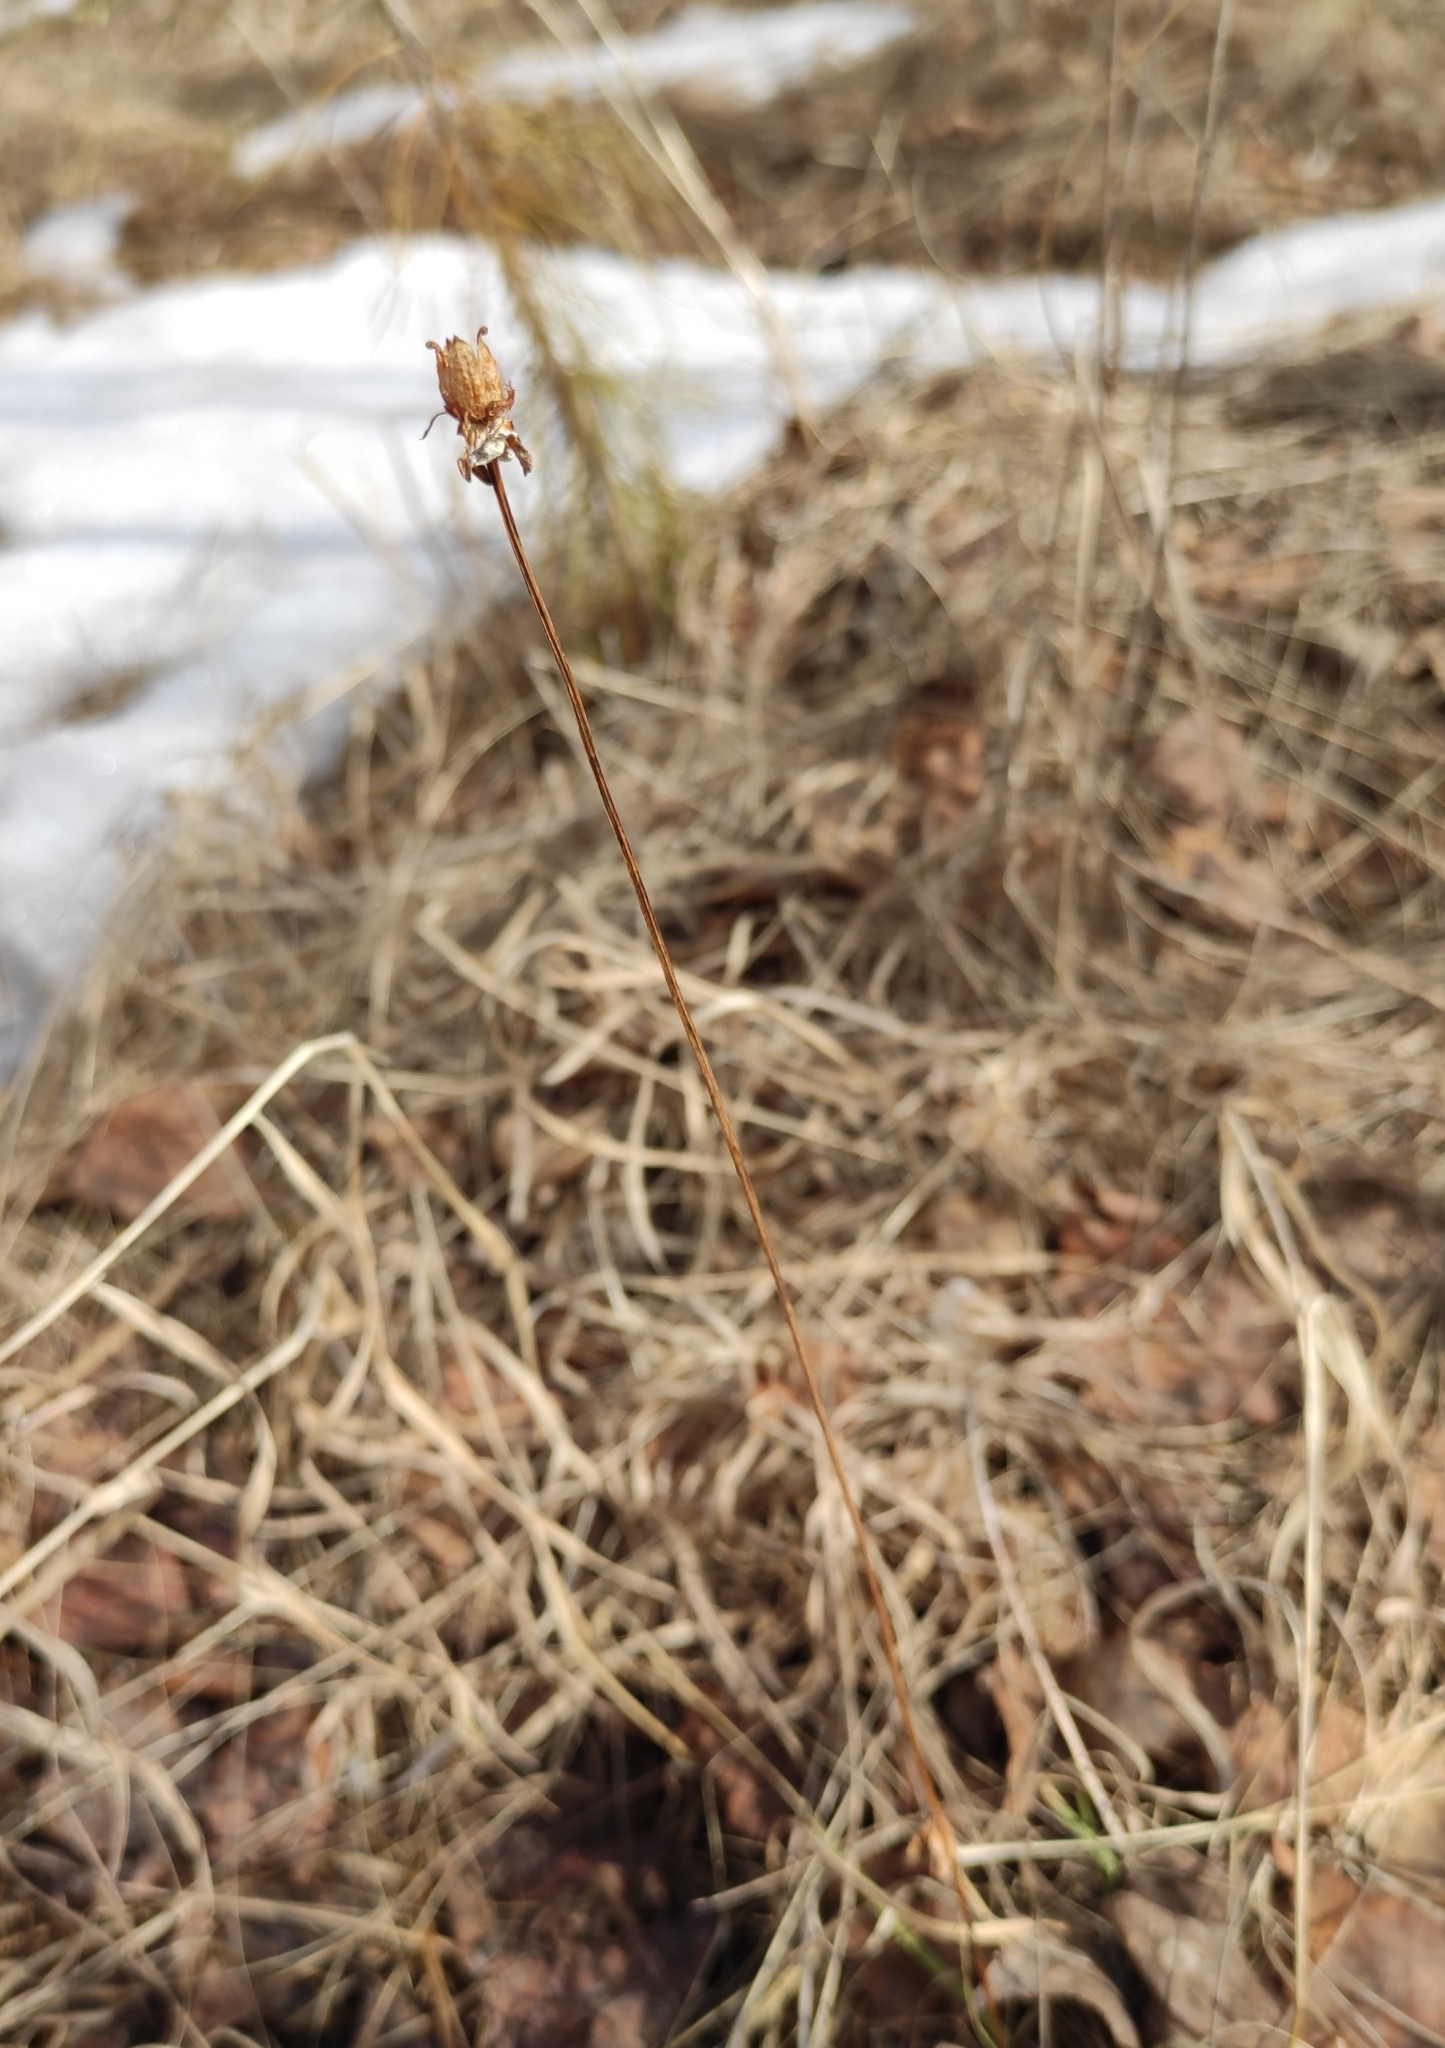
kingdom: Plantae
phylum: Tracheophyta
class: Magnoliopsida
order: Celastrales
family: Parnassiaceae
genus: Parnassia
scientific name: Parnassia palustris
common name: Grass-of-parnassus
